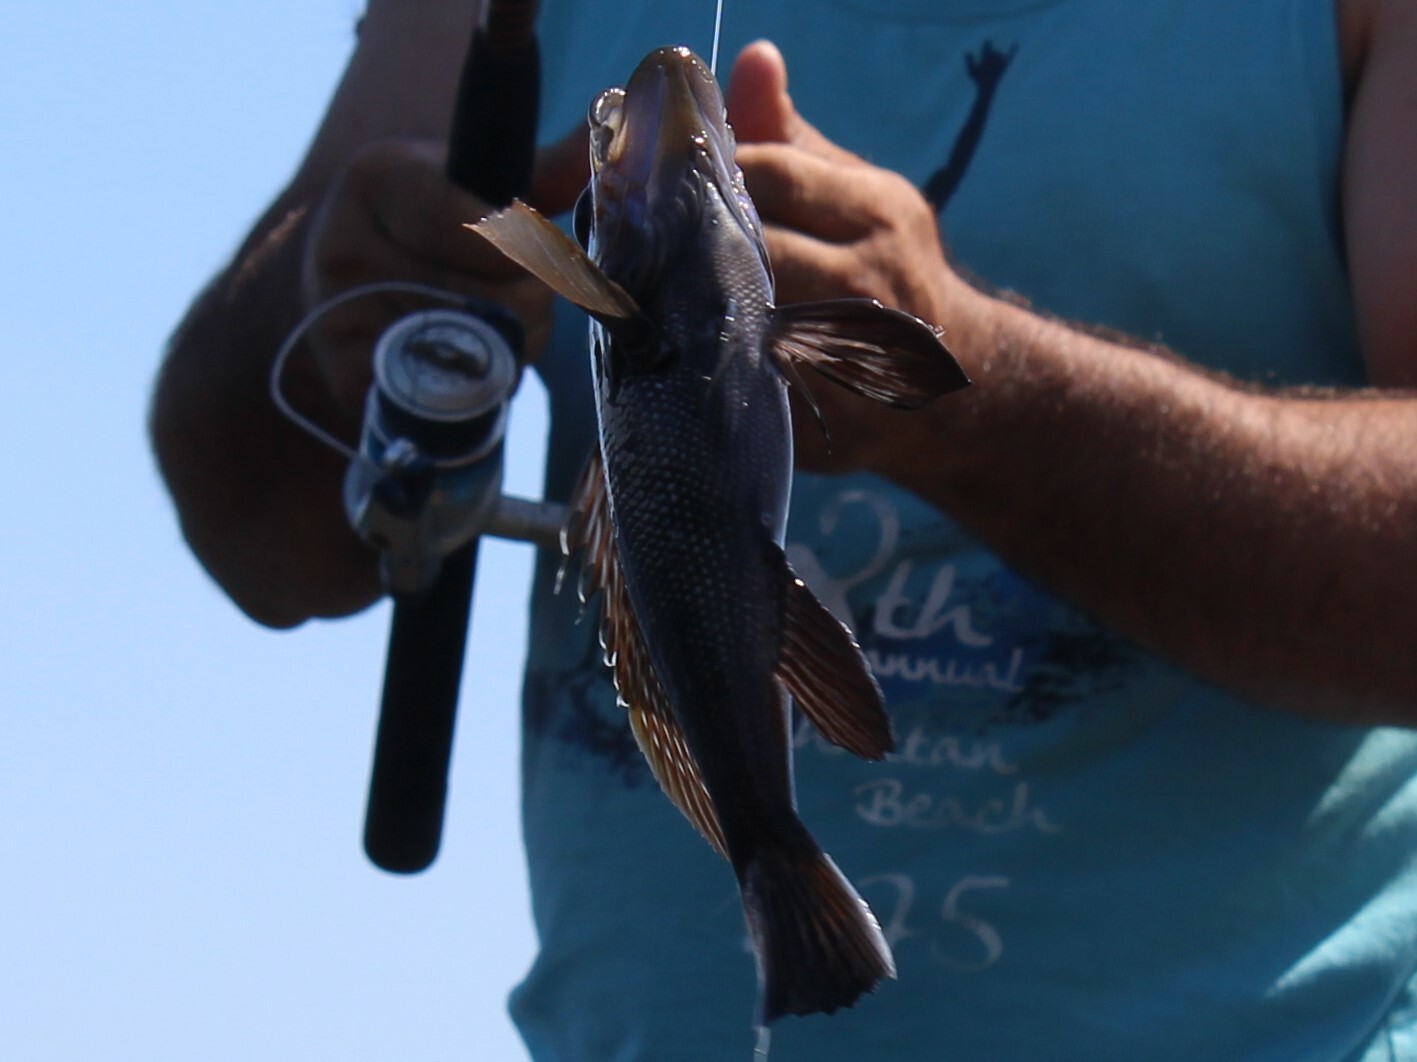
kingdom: Animalia
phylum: Chordata
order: Perciformes
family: Serranidae
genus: Centropristis
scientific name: Centropristis striata
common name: Black sea bass
